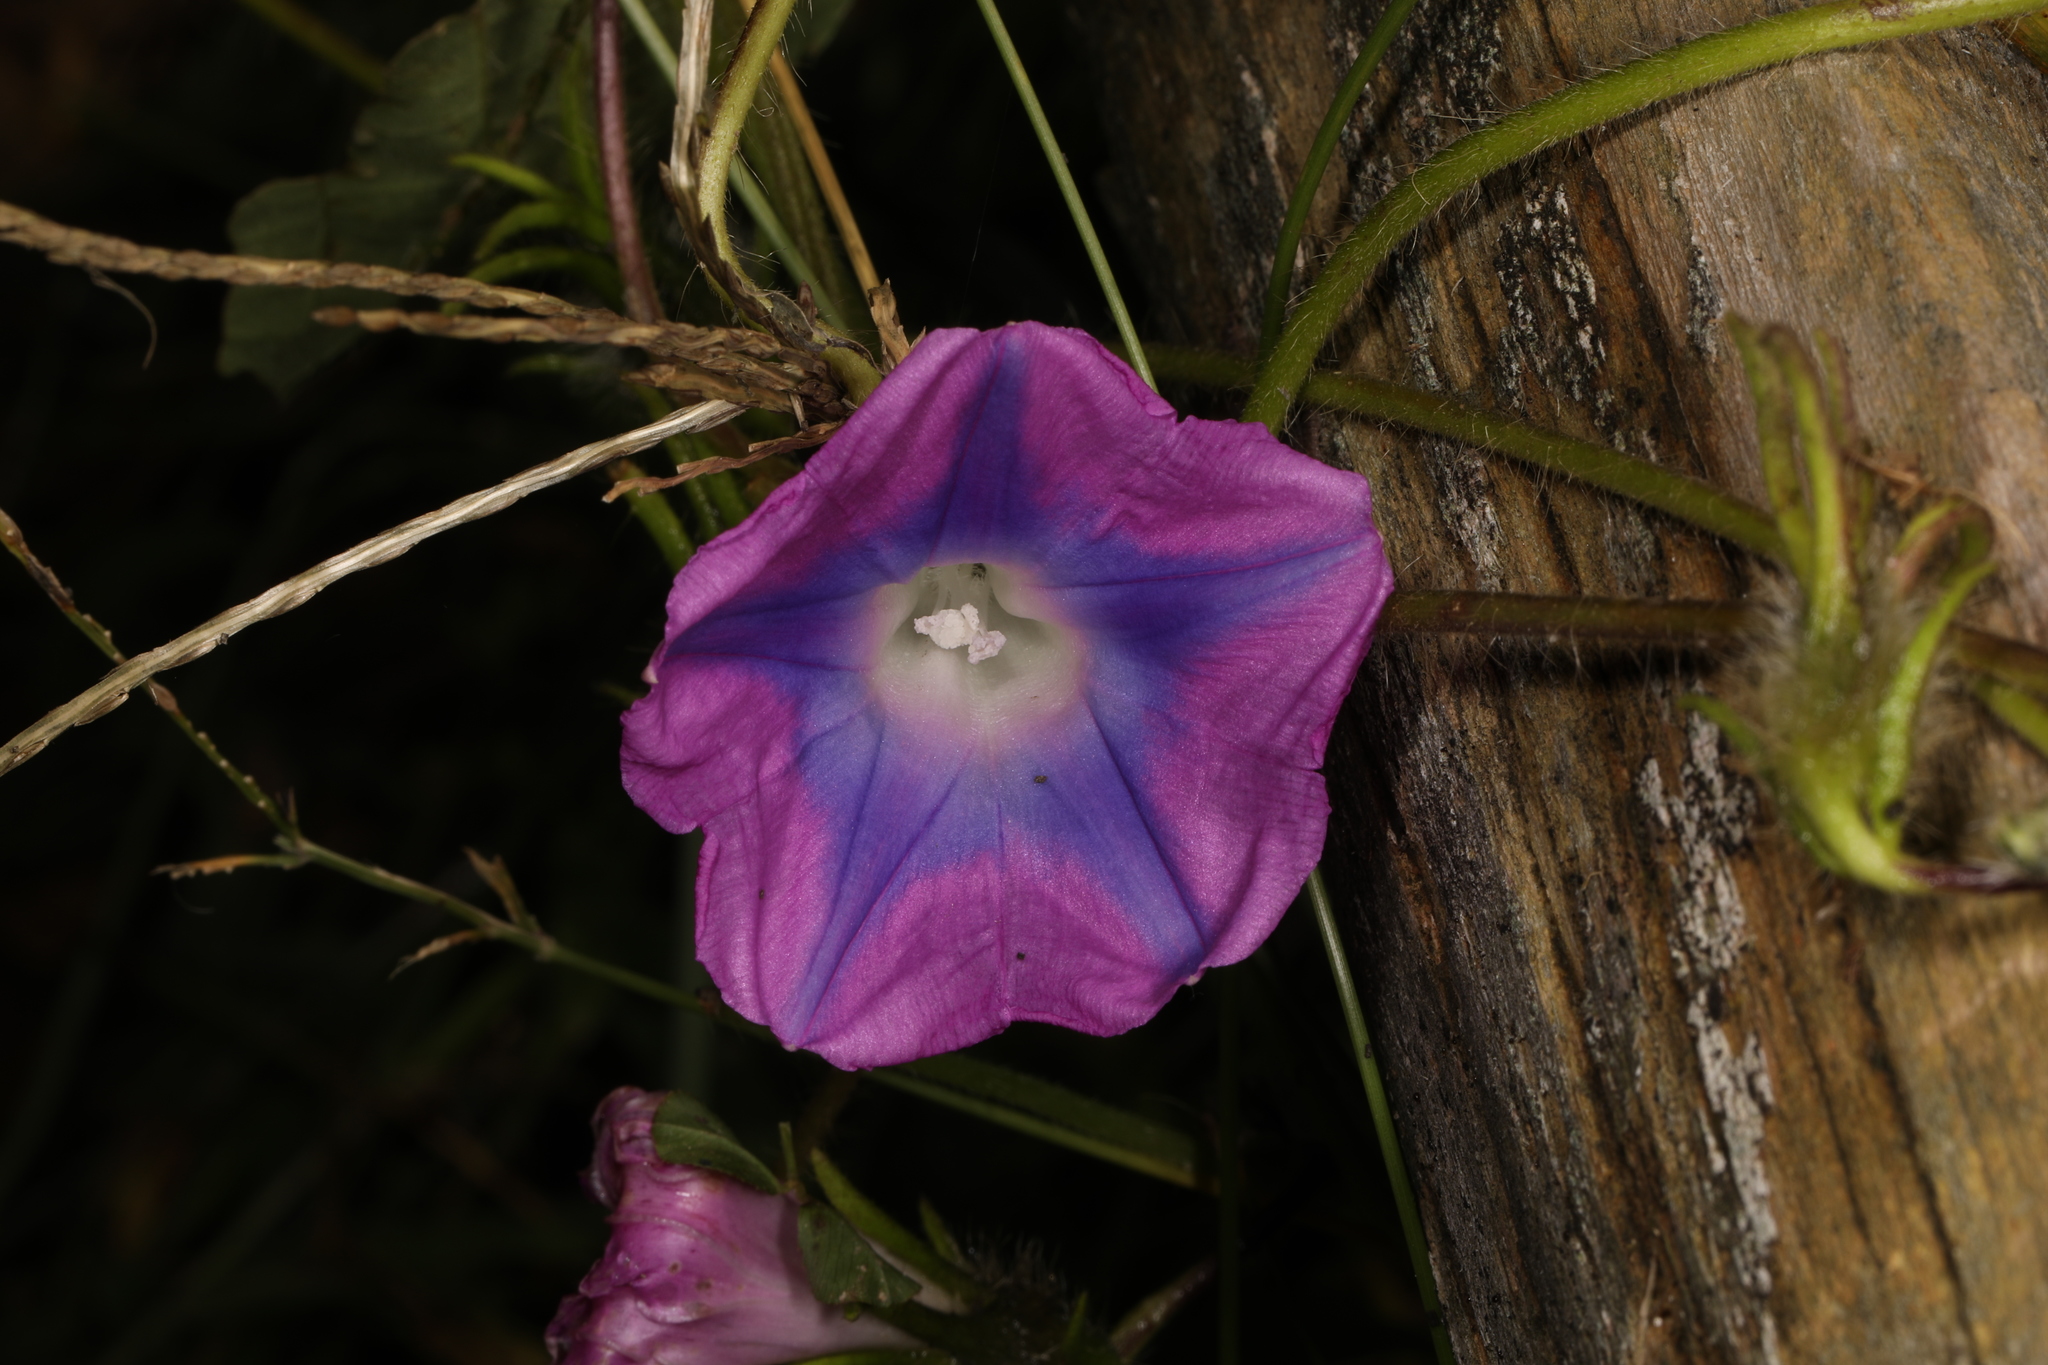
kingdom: Plantae
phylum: Tracheophyta
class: Magnoliopsida
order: Solanales
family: Convolvulaceae
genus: Ipomoea
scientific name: Ipomoea hederacea
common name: Ivy-leaved morning-glory
